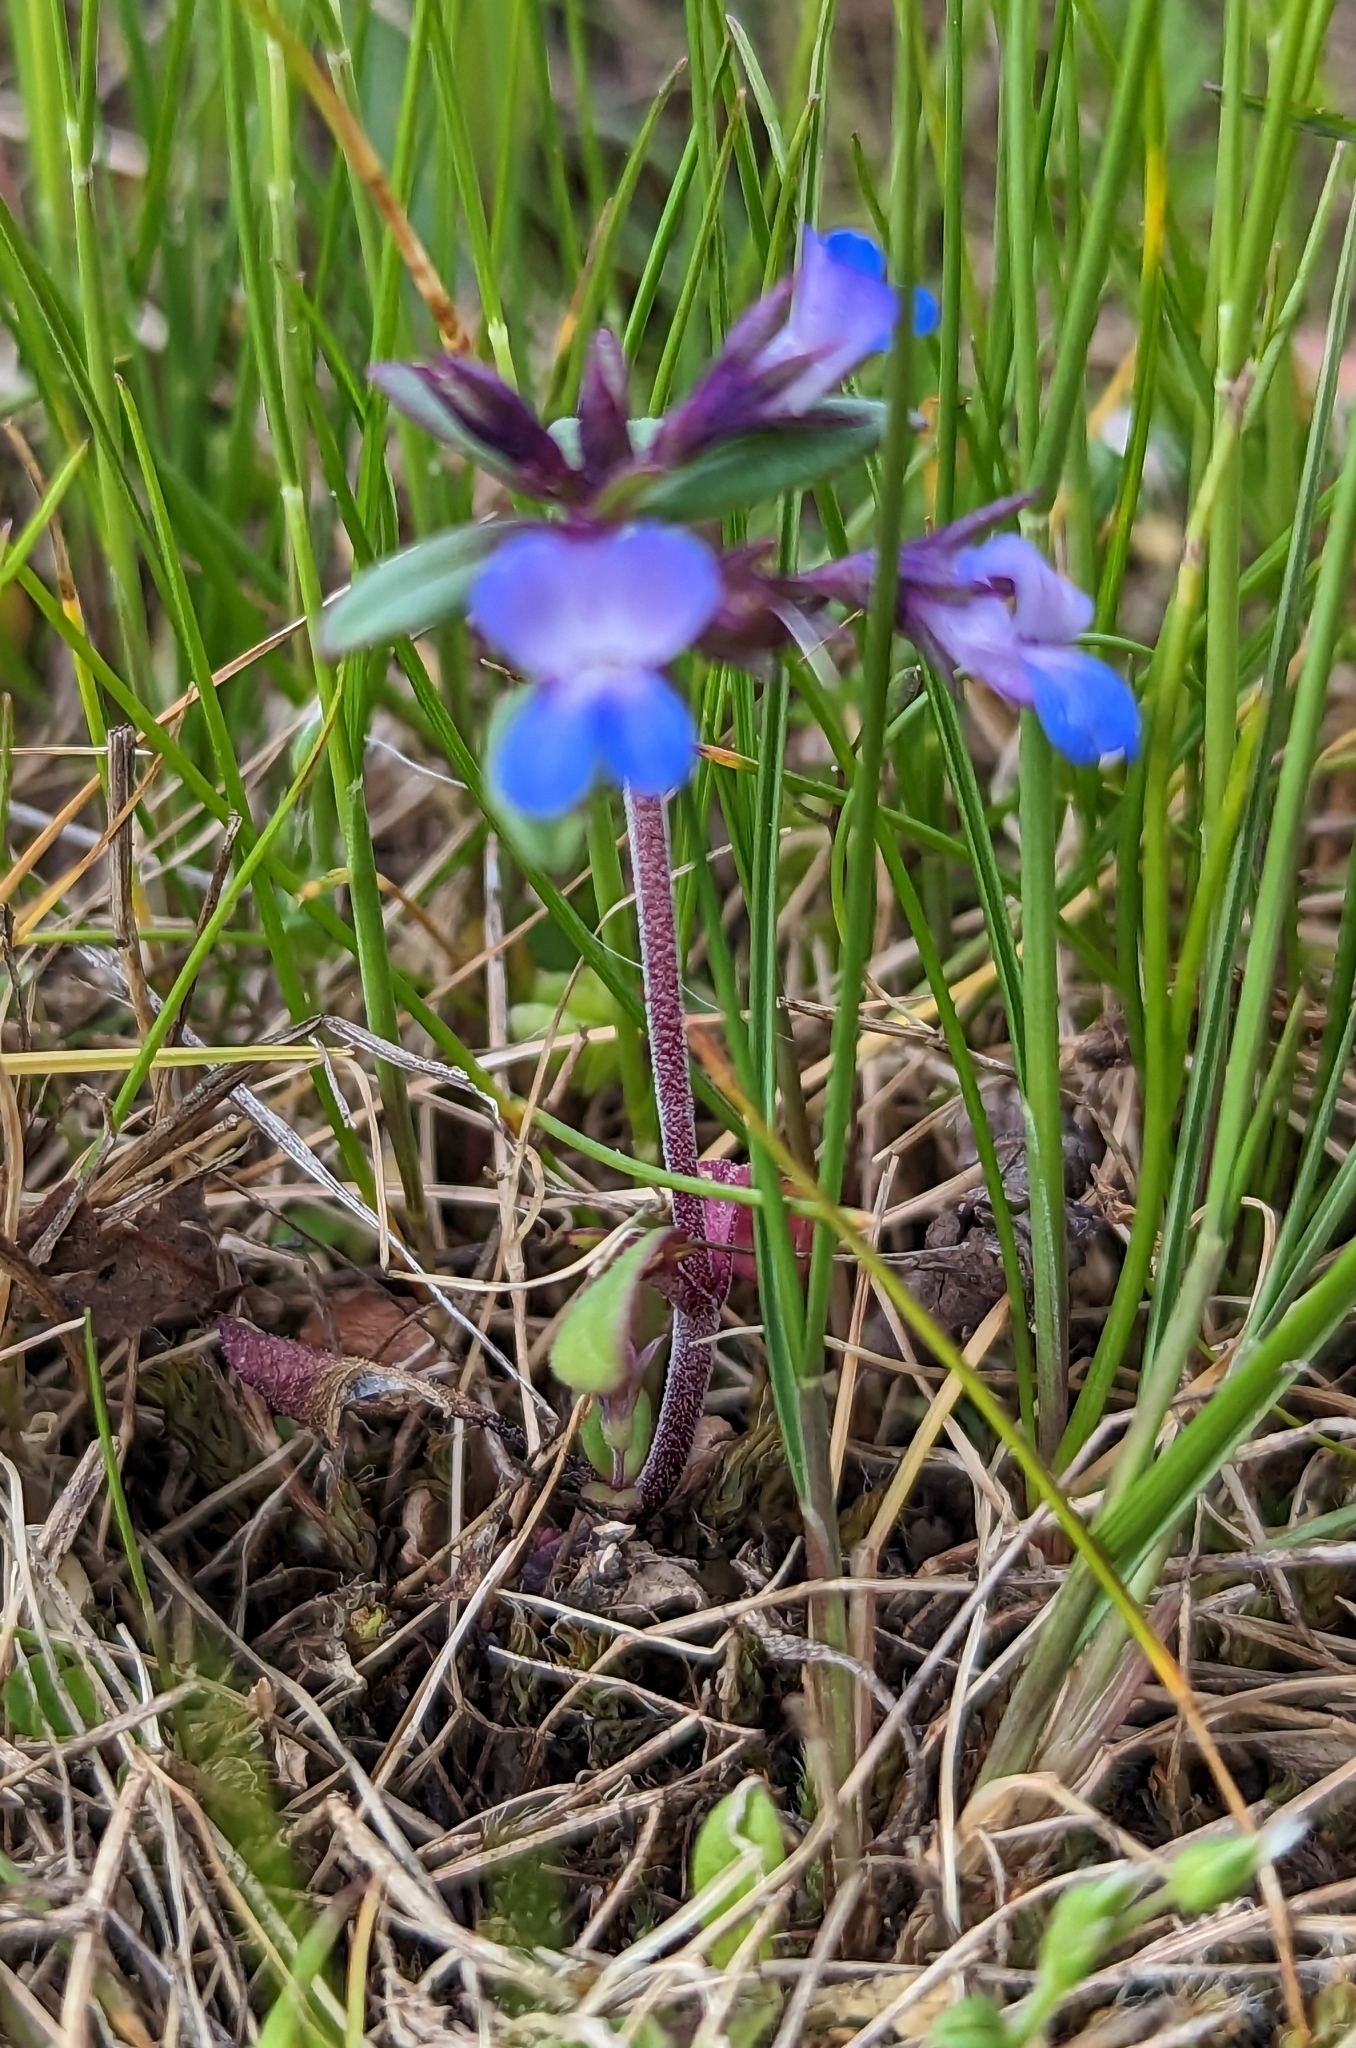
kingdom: Plantae
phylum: Tracheophyta
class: Magnoliopsida
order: Lamiales
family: Plantaginaceae
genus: Collinsia
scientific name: Collinsia parviflora
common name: Blue-lips
